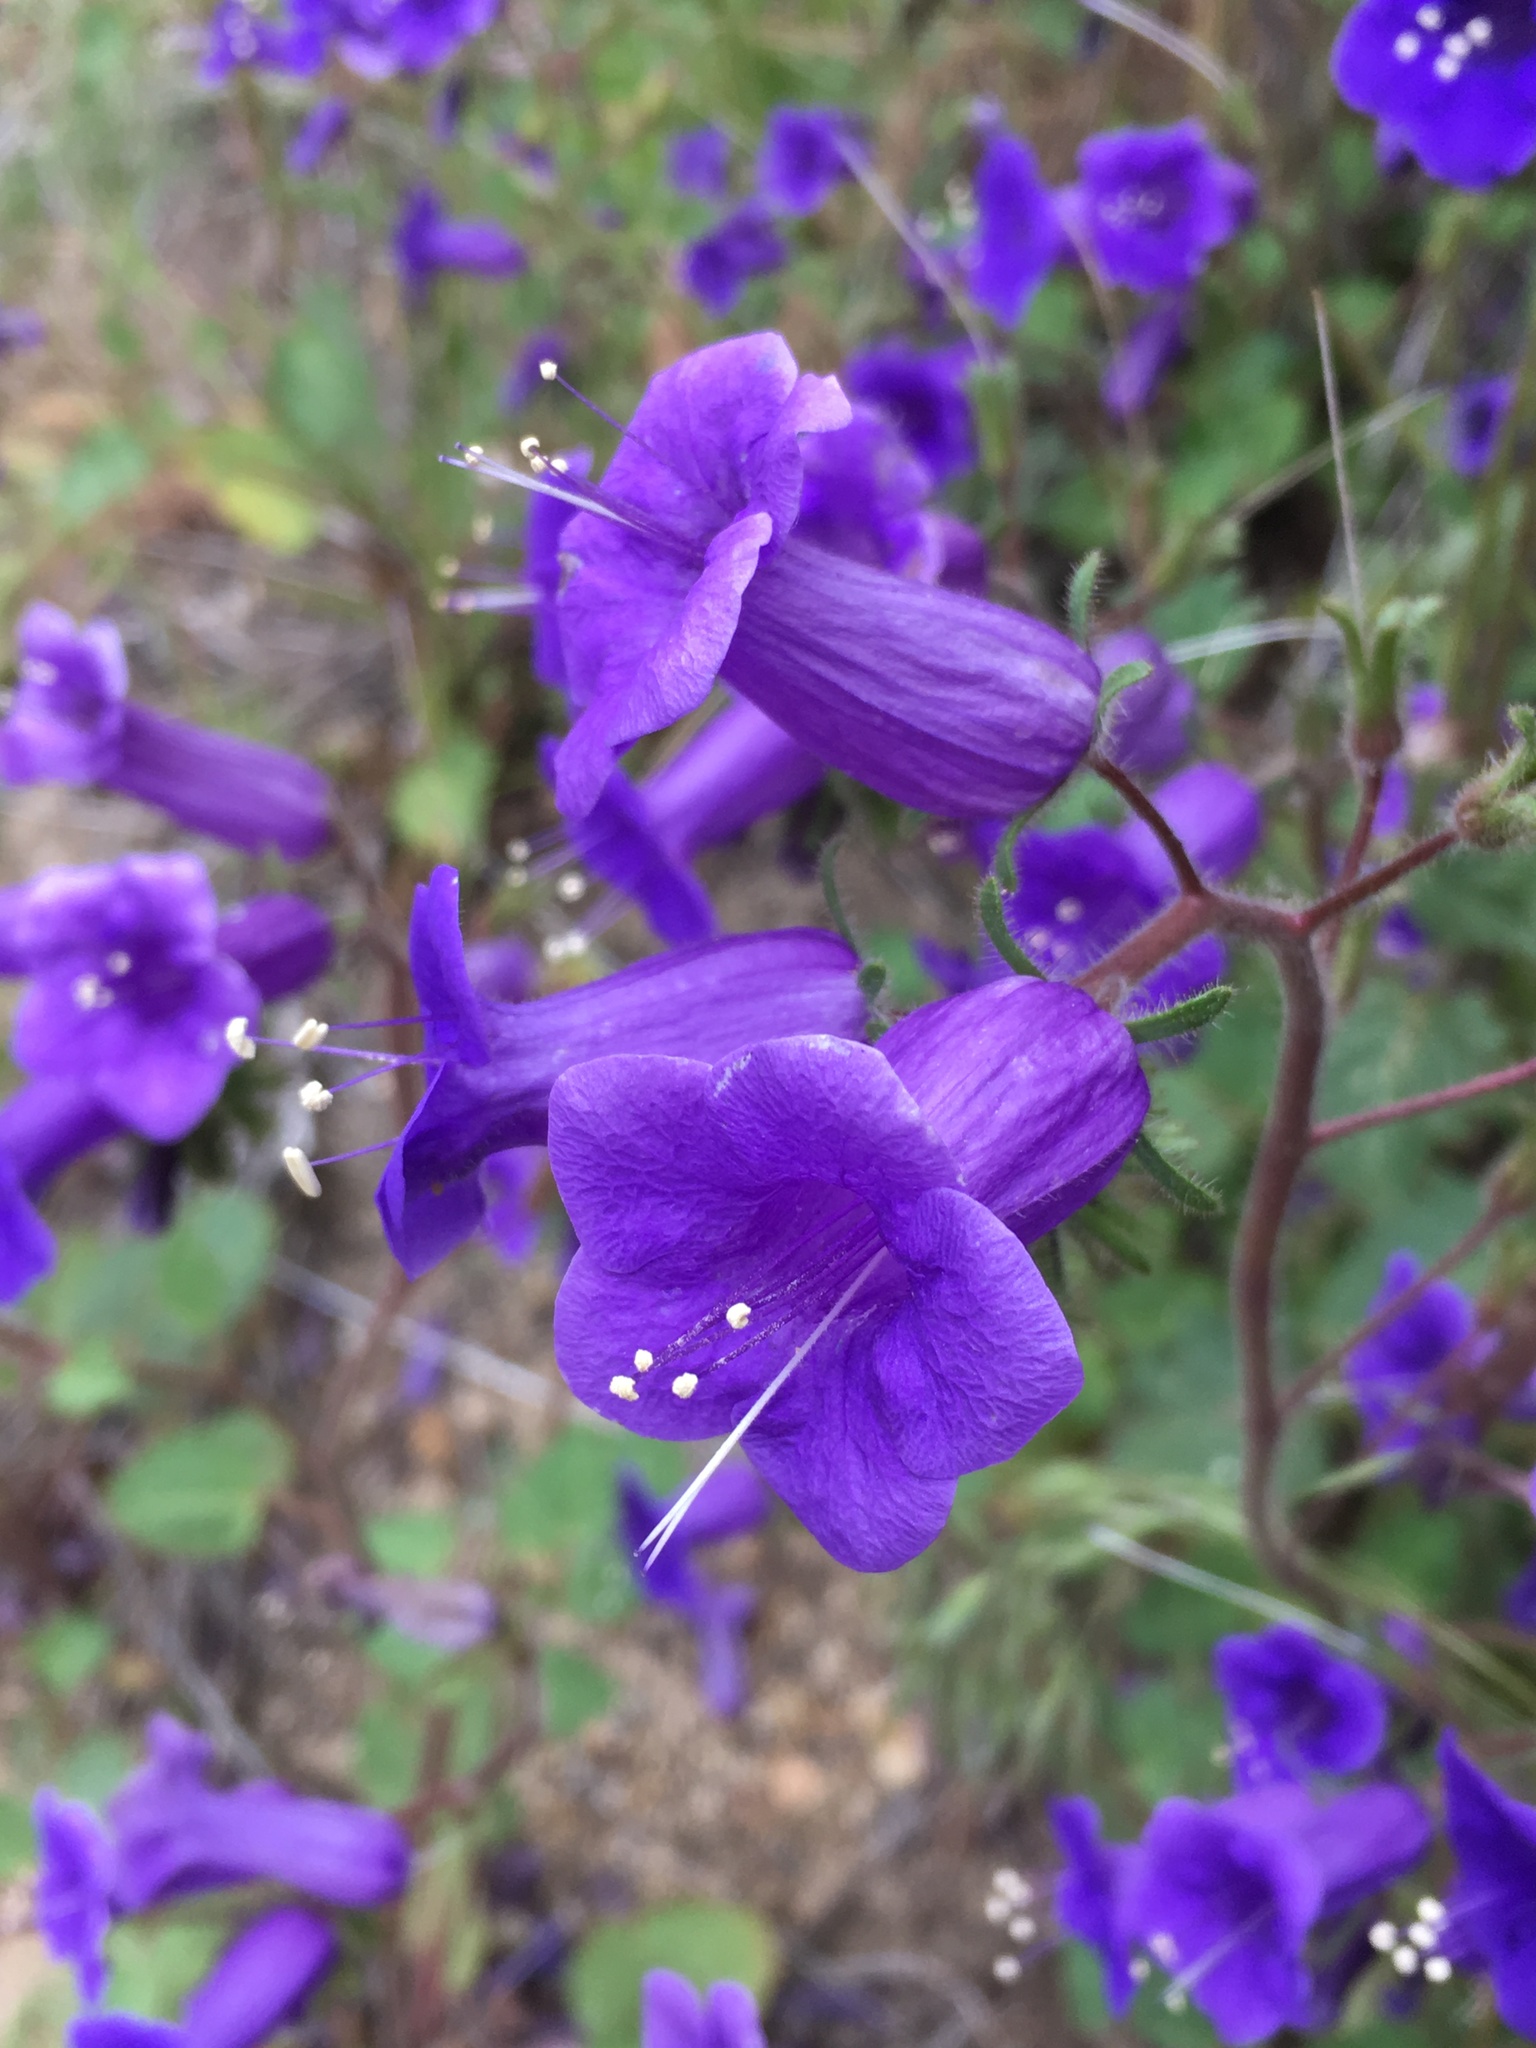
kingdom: Plantae
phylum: Tracheophyta
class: Magnoliopsida
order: Boraginales
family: Hydrophyllaceae
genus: Phacelia
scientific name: Phacelia minor
